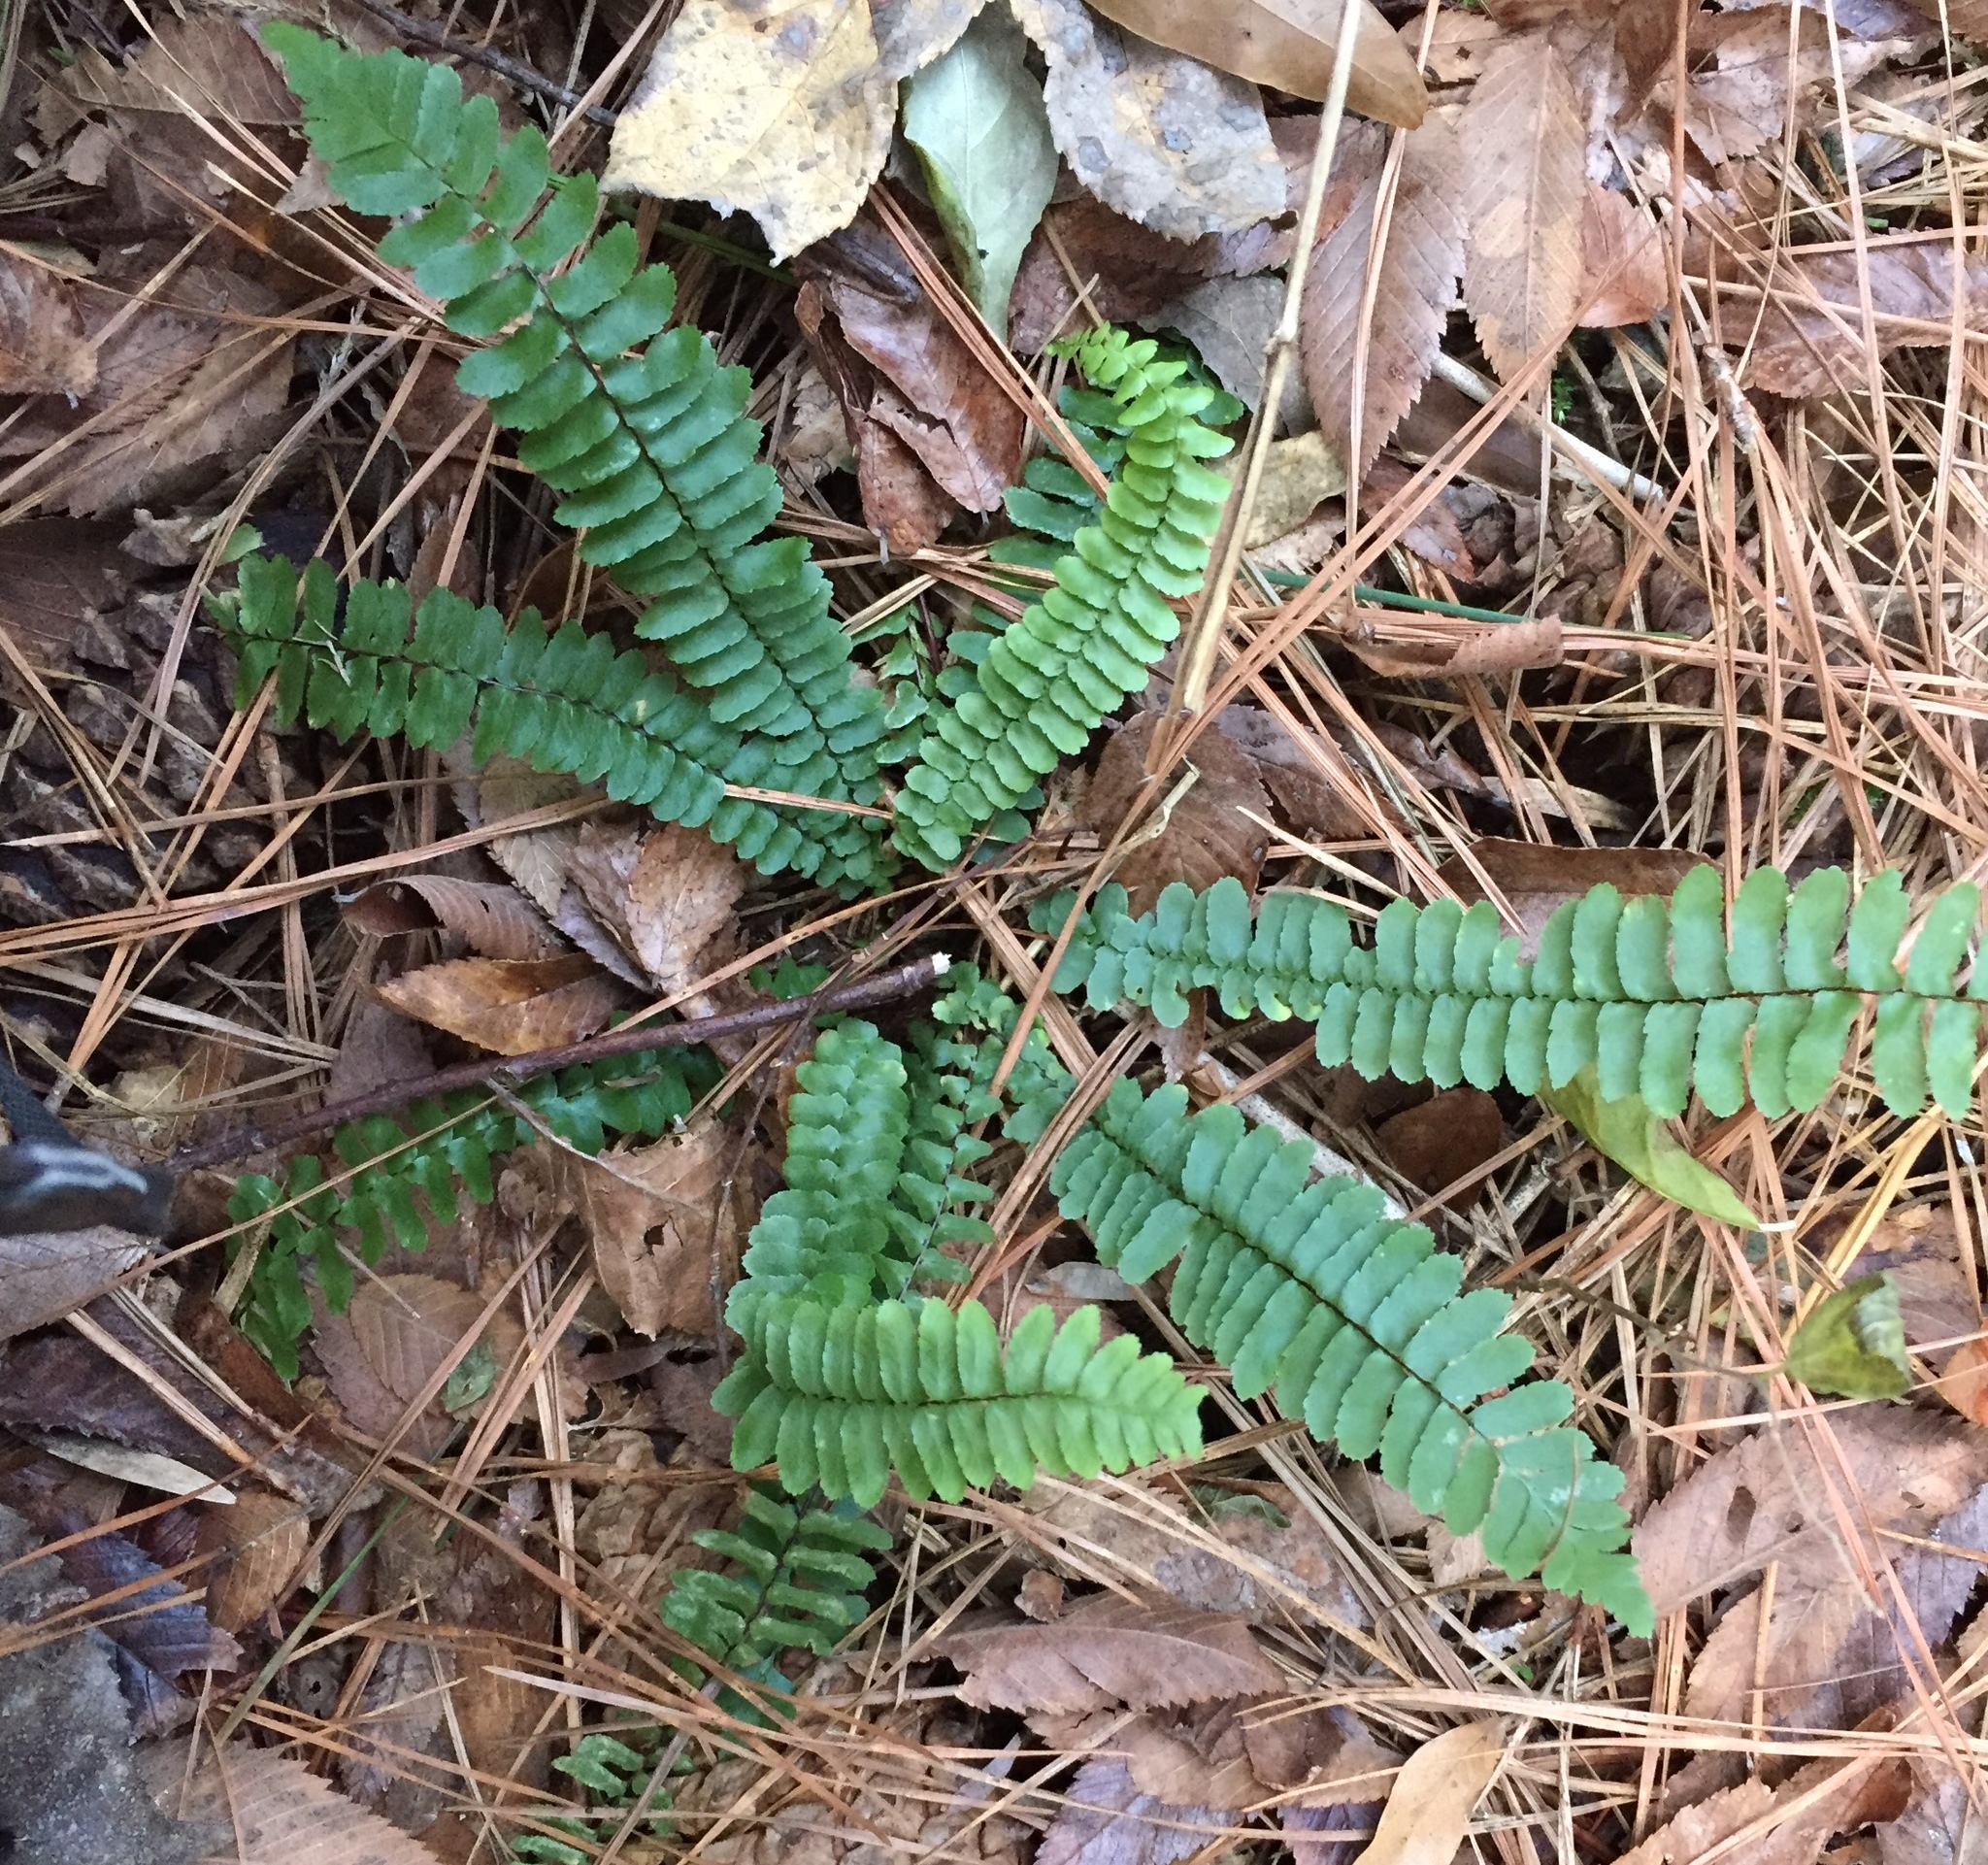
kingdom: Plantae
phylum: Tracheophyta
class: Polypodiopsida
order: Polypodiales
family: Aspleniaceae
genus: Asplenium
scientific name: Asplenium platyneuron
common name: Ebony spleenwort
